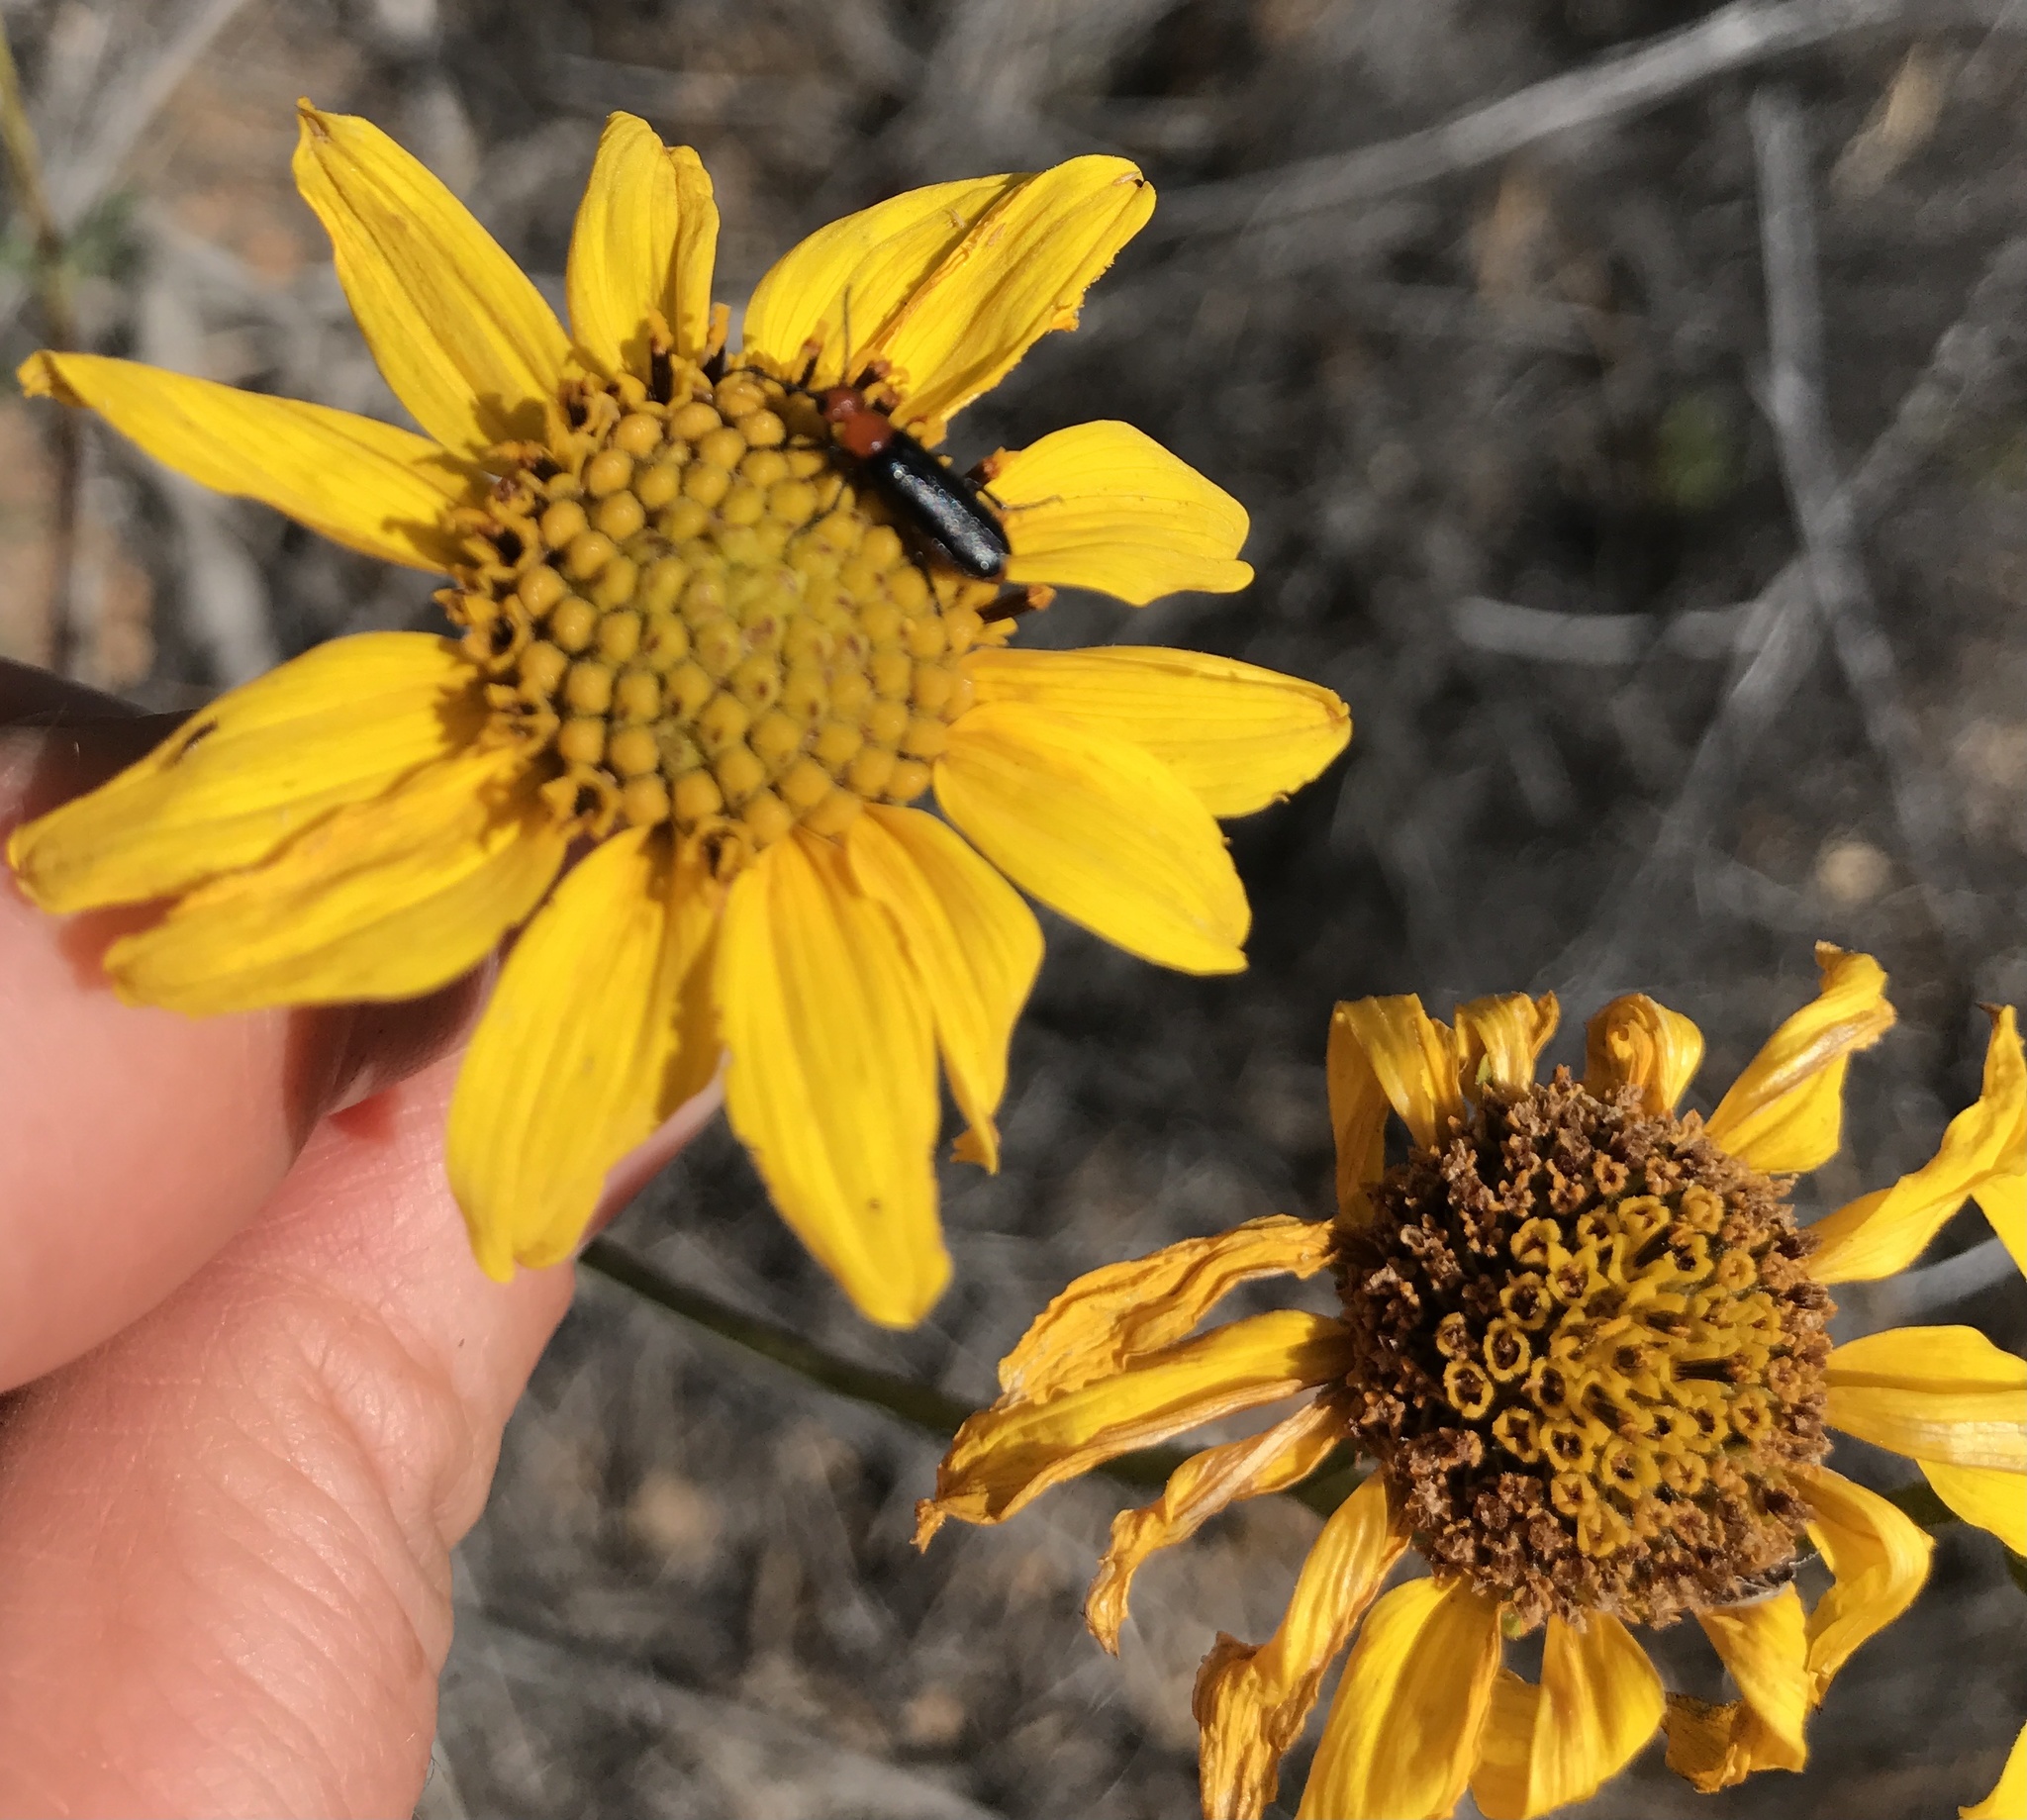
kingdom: Animalia
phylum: Arthropoda
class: Insecta
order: Coleoptera
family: Meloidae
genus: Nemognatha
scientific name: Nemognatha nigripennis
